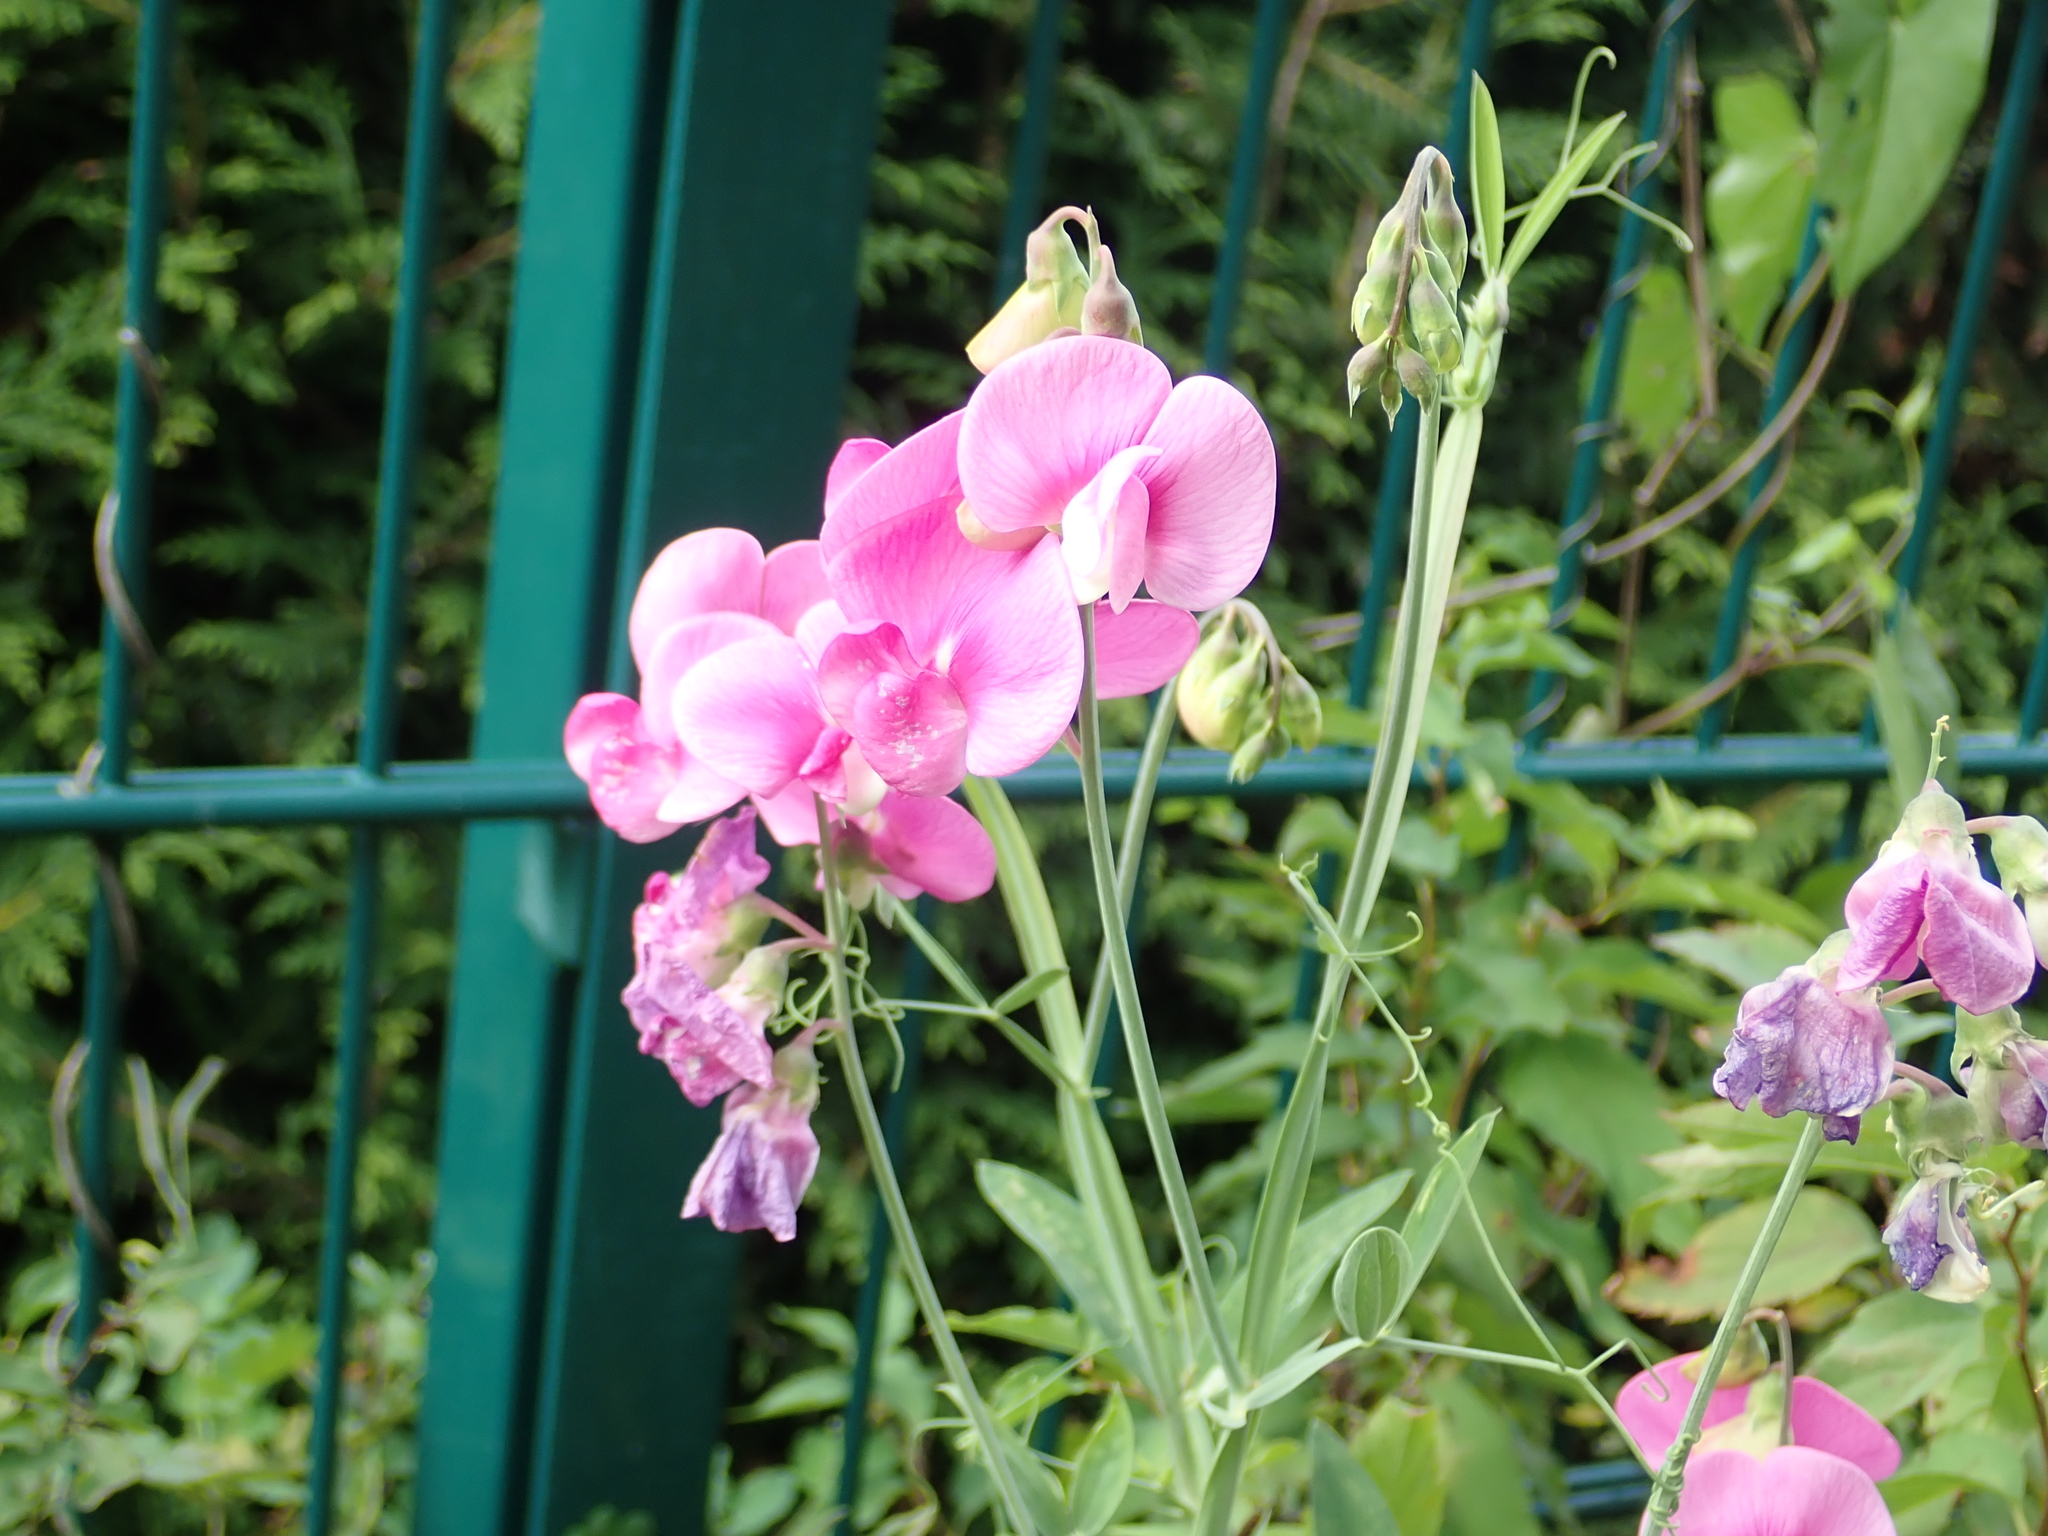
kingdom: Plantae
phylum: Tracheophyta
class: Magnoliopsida
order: Fabales
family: Fabaceae
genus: Lathyrus
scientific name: Lathyrus latifolius
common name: Perennial pea
